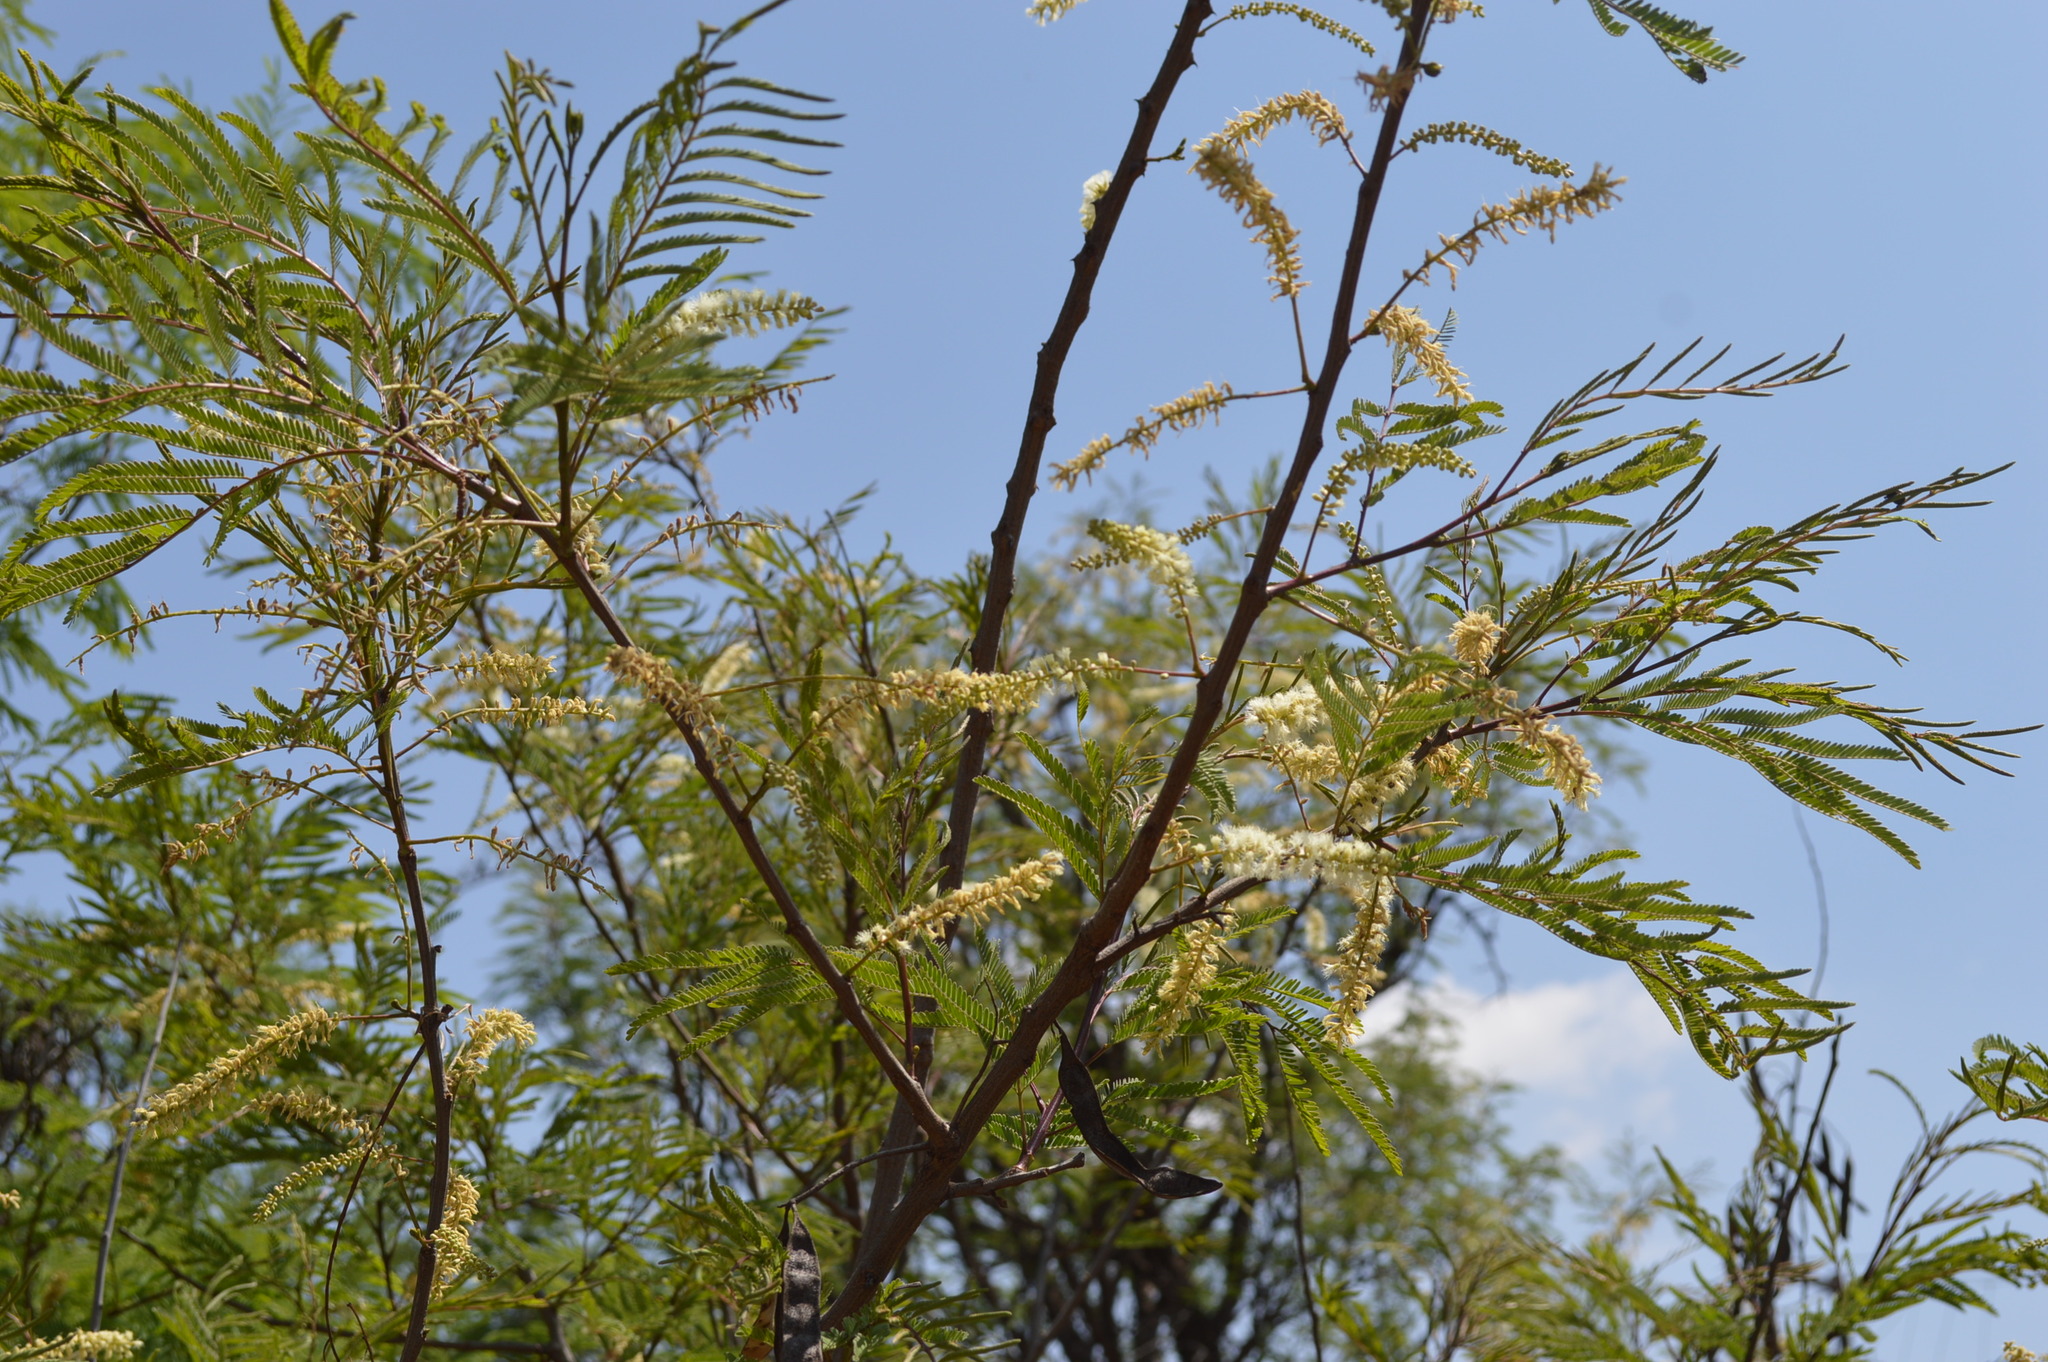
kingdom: Plantae
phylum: Tracheophyta
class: Magnoliopsida
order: Fabales
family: Fabaceae
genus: Senegalia
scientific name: Senegalia caffra
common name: Cat thorn
